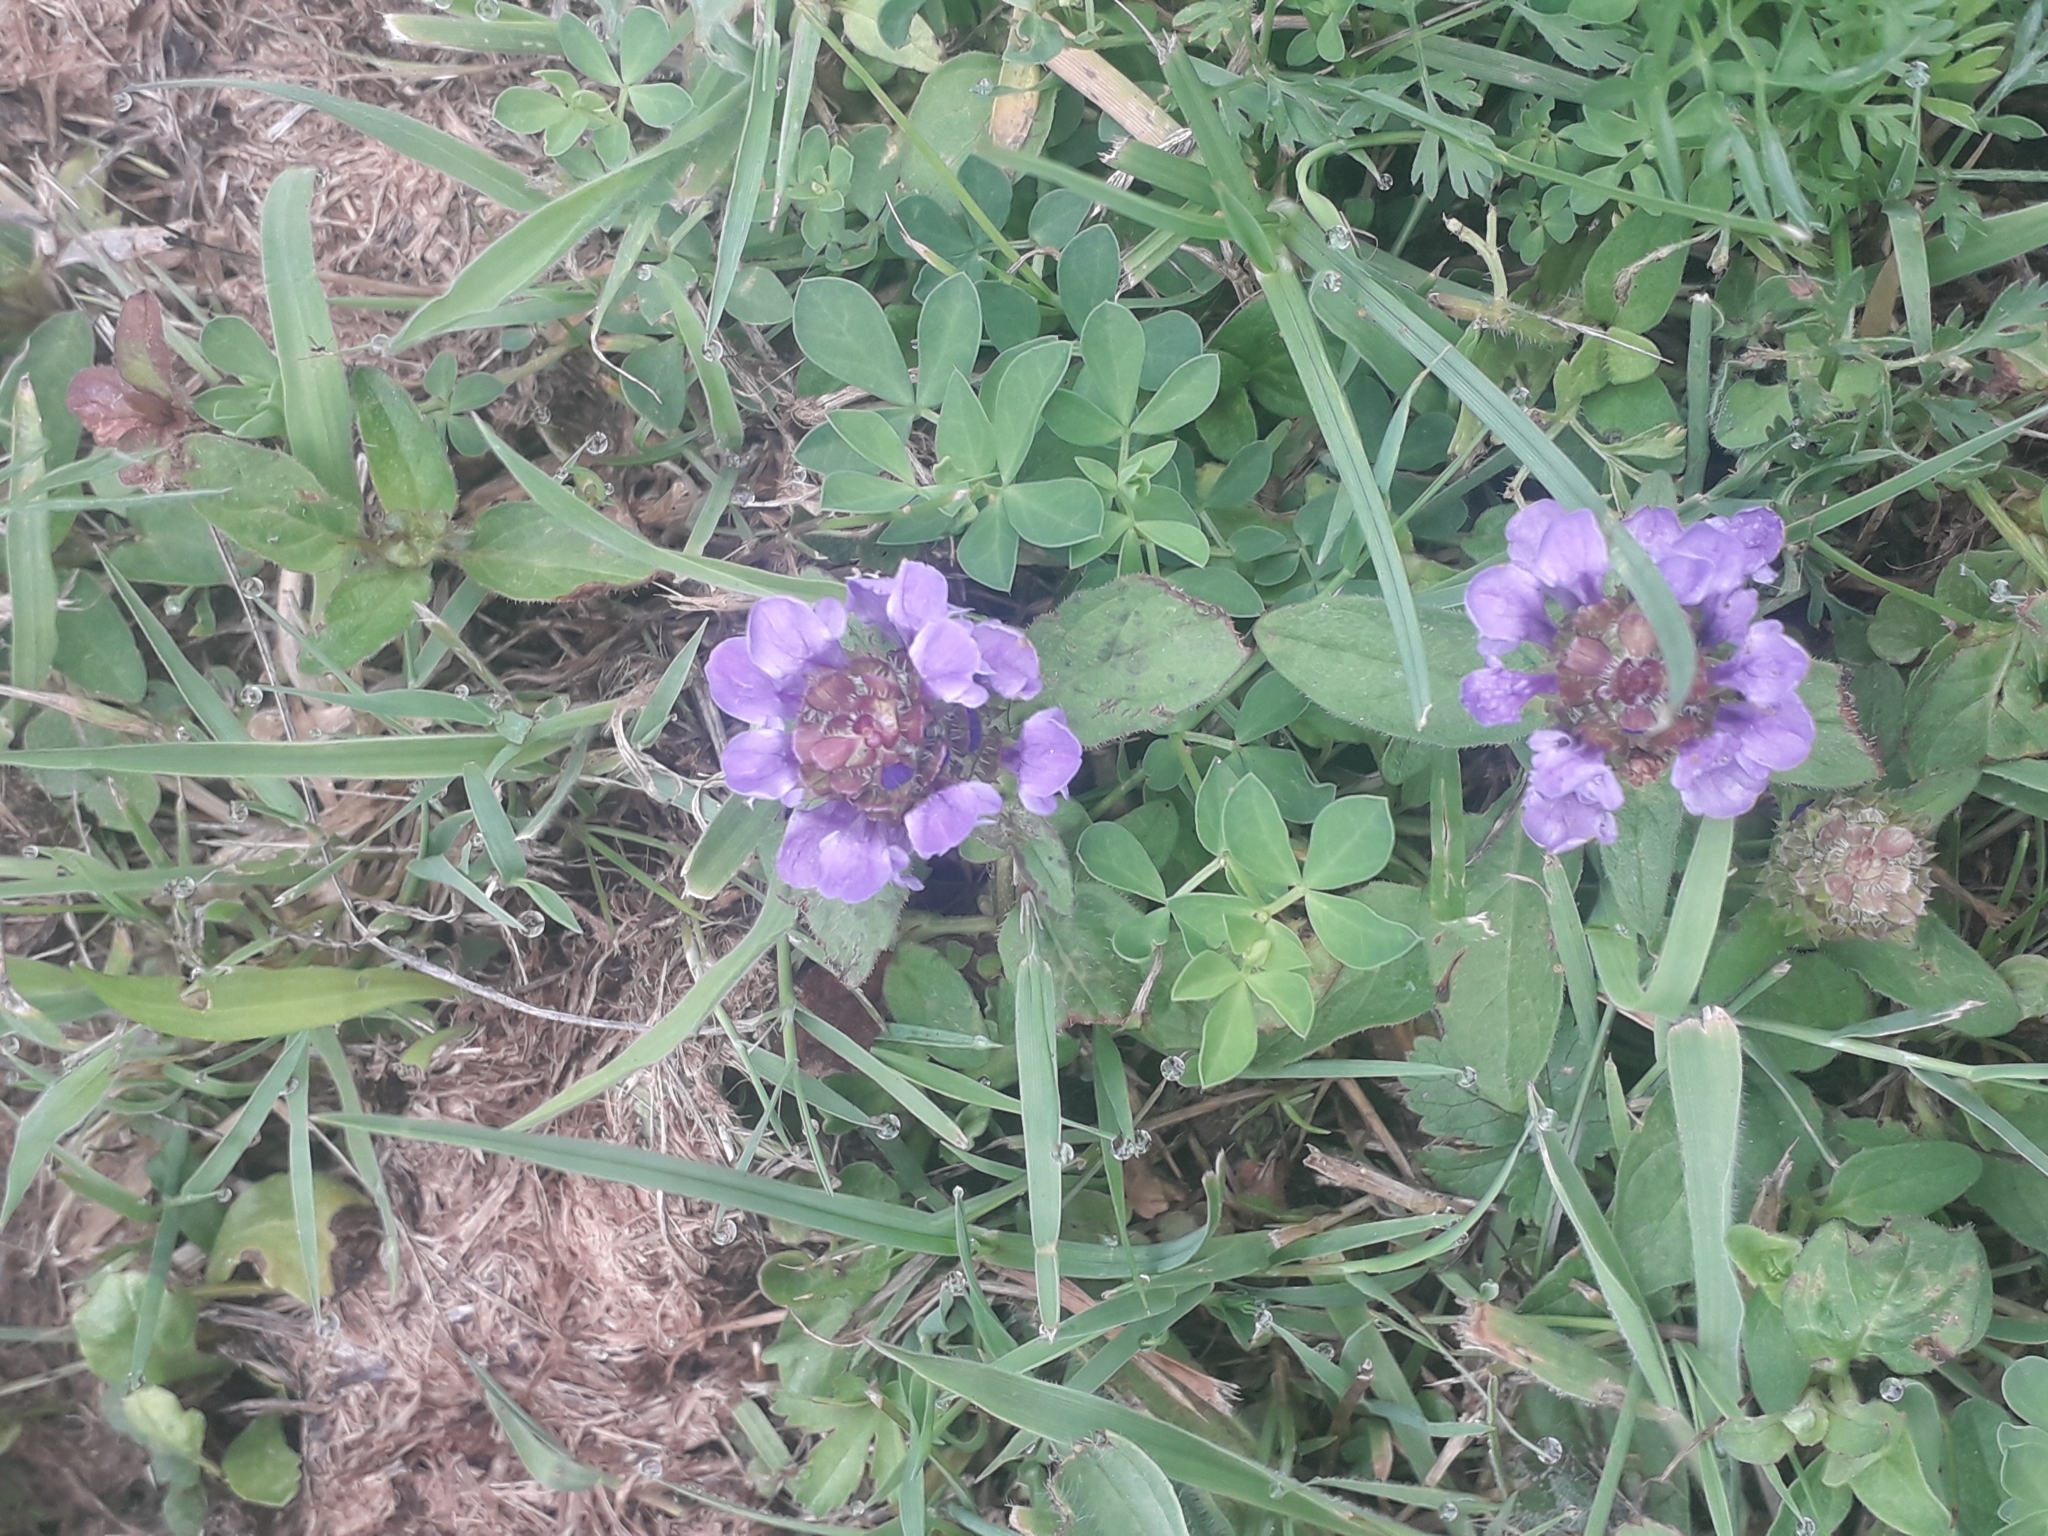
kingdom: Plantae
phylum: Tracheophyta
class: Magnoliopsida
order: Lamiales
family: Lamiaceae
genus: Prunella
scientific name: Prunella vulgaris
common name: Heal-all
